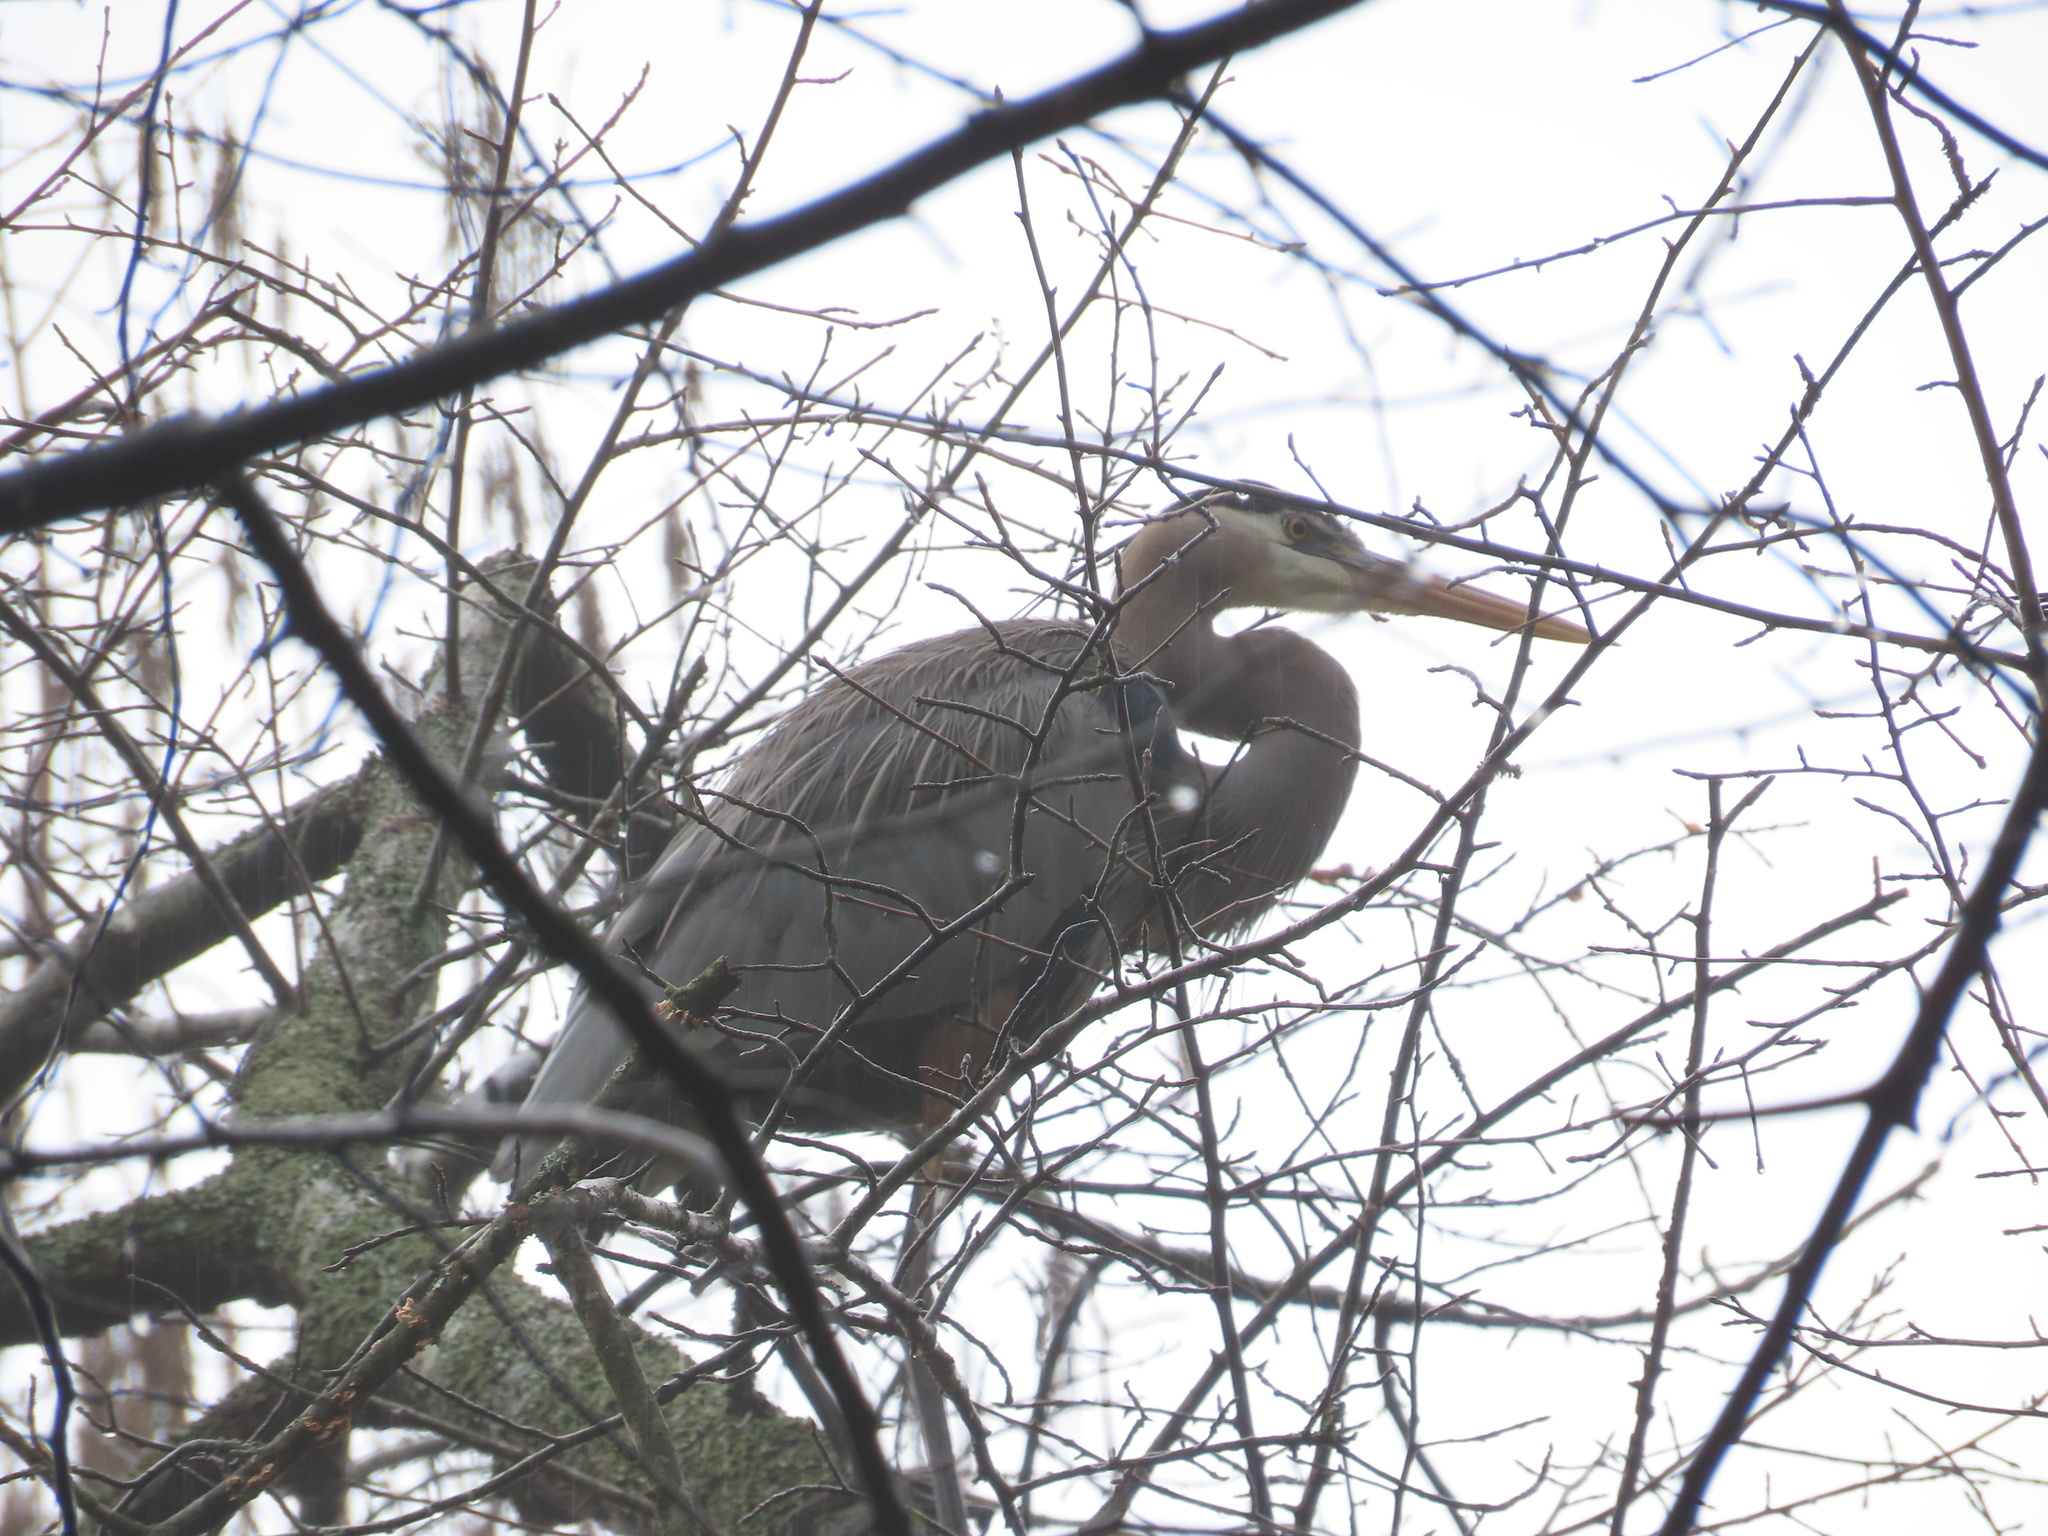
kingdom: Animalia
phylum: Chordata
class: Aves
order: Pelecaniformes
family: Ardeidae
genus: Ardea
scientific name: Ardea herodias
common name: Great blue heron
